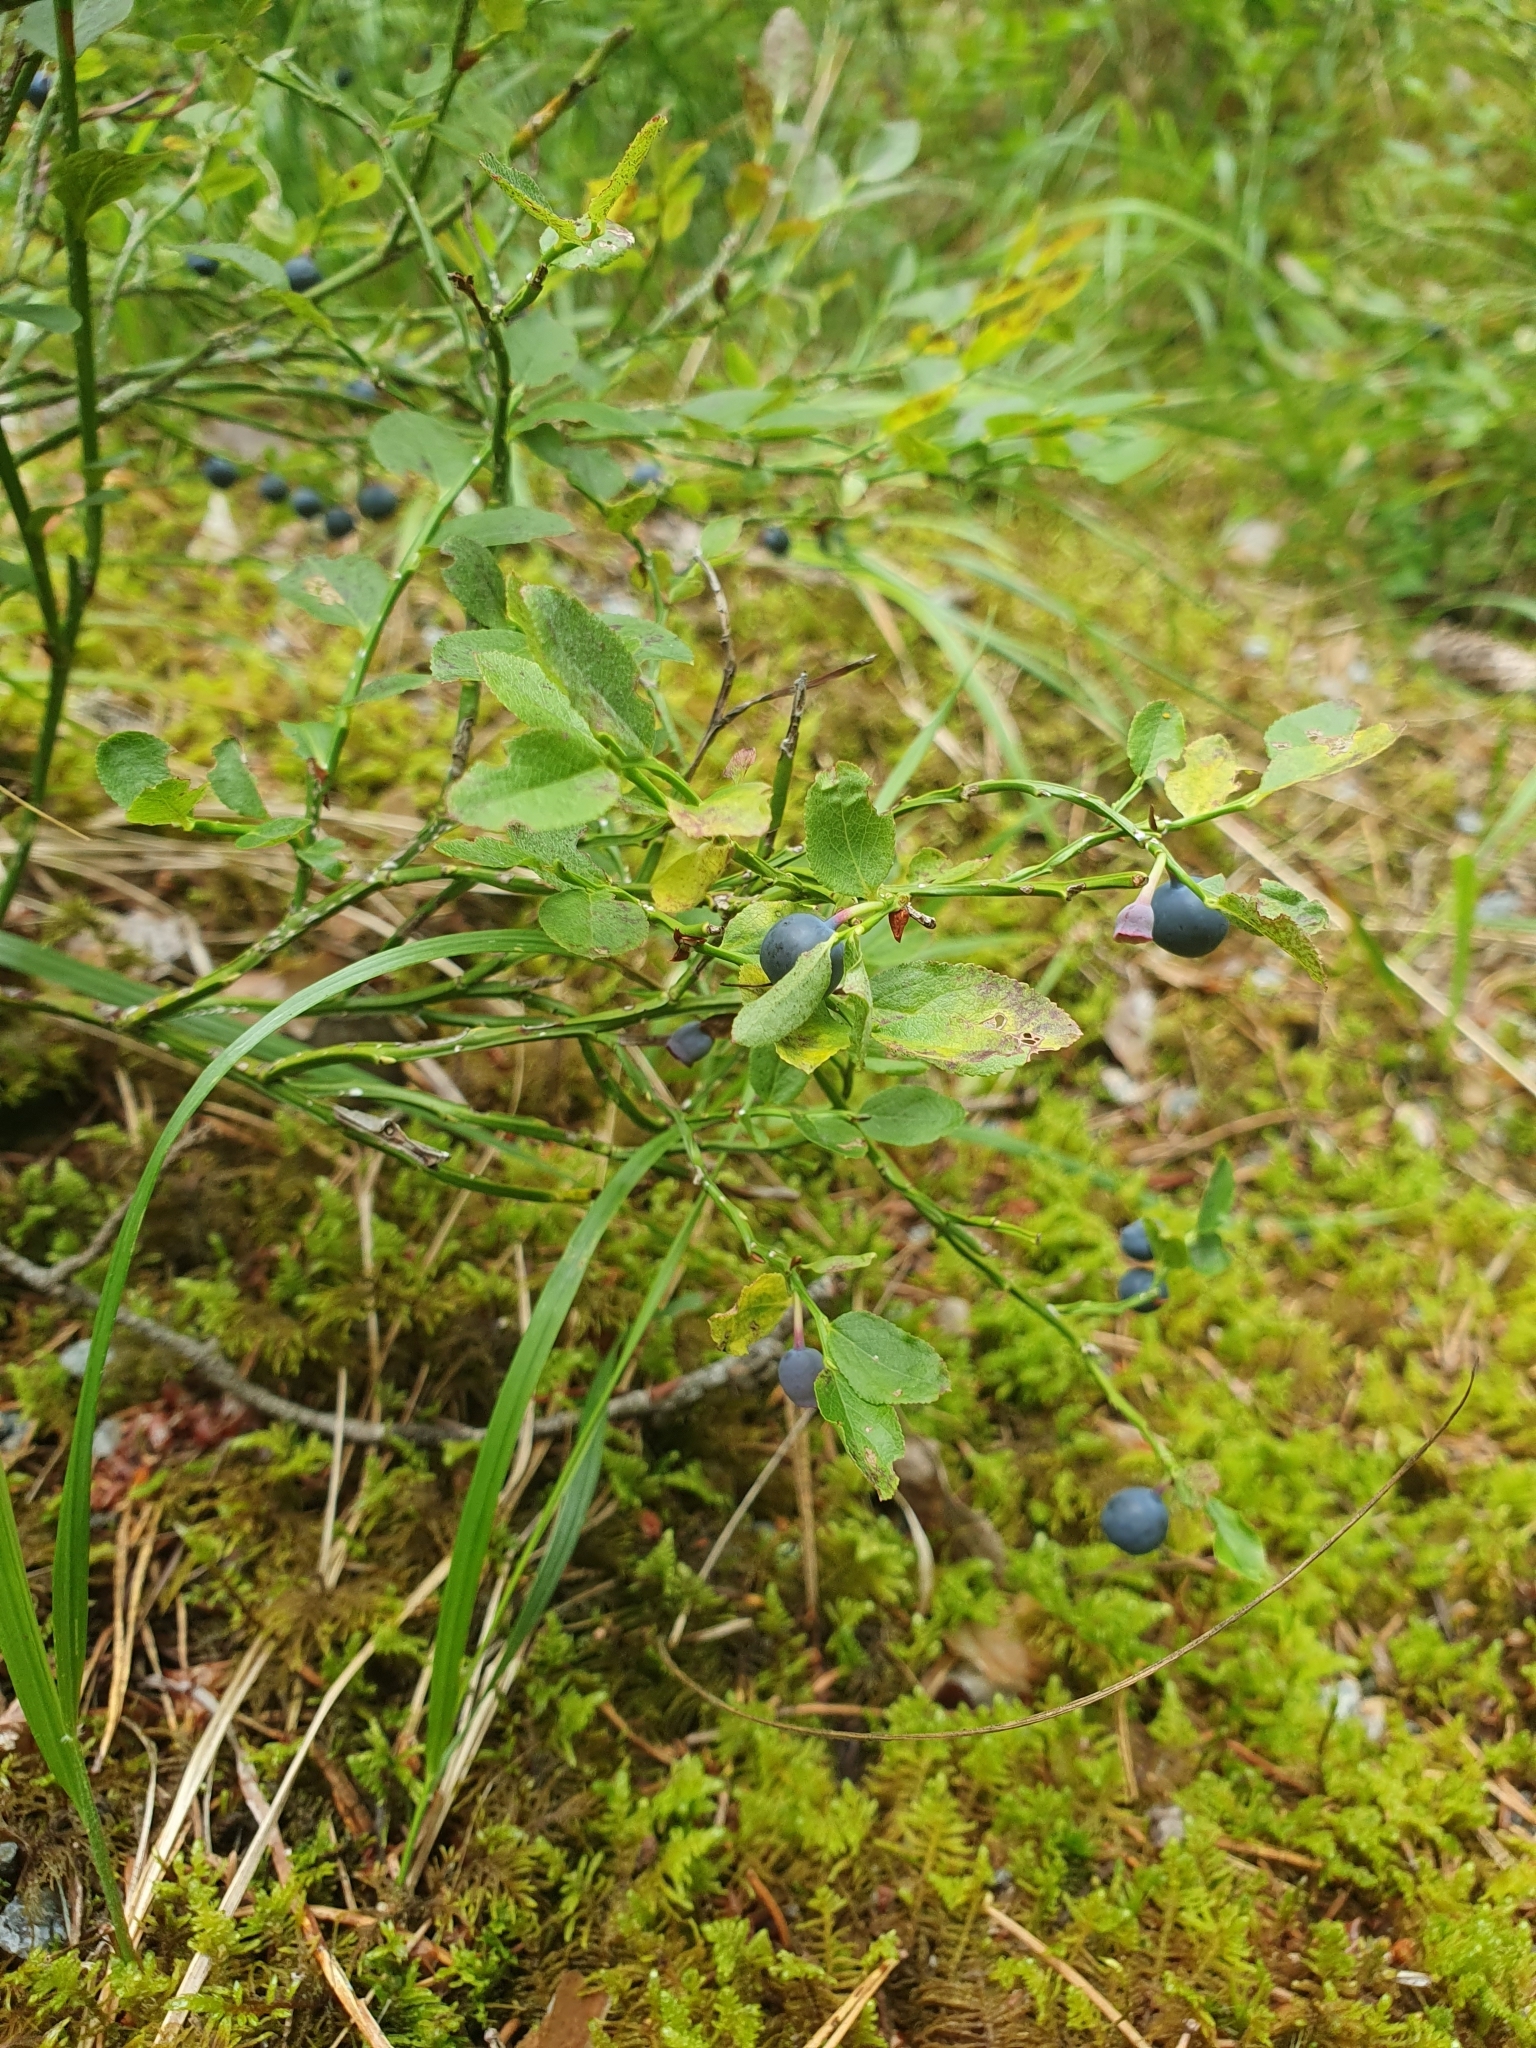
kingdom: Plantae
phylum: Tracheophyta
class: Magnoliopsida
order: Ericales
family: Ericaceae
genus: Vaccinium
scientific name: Vaccinium myrtillus
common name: Bilberry
